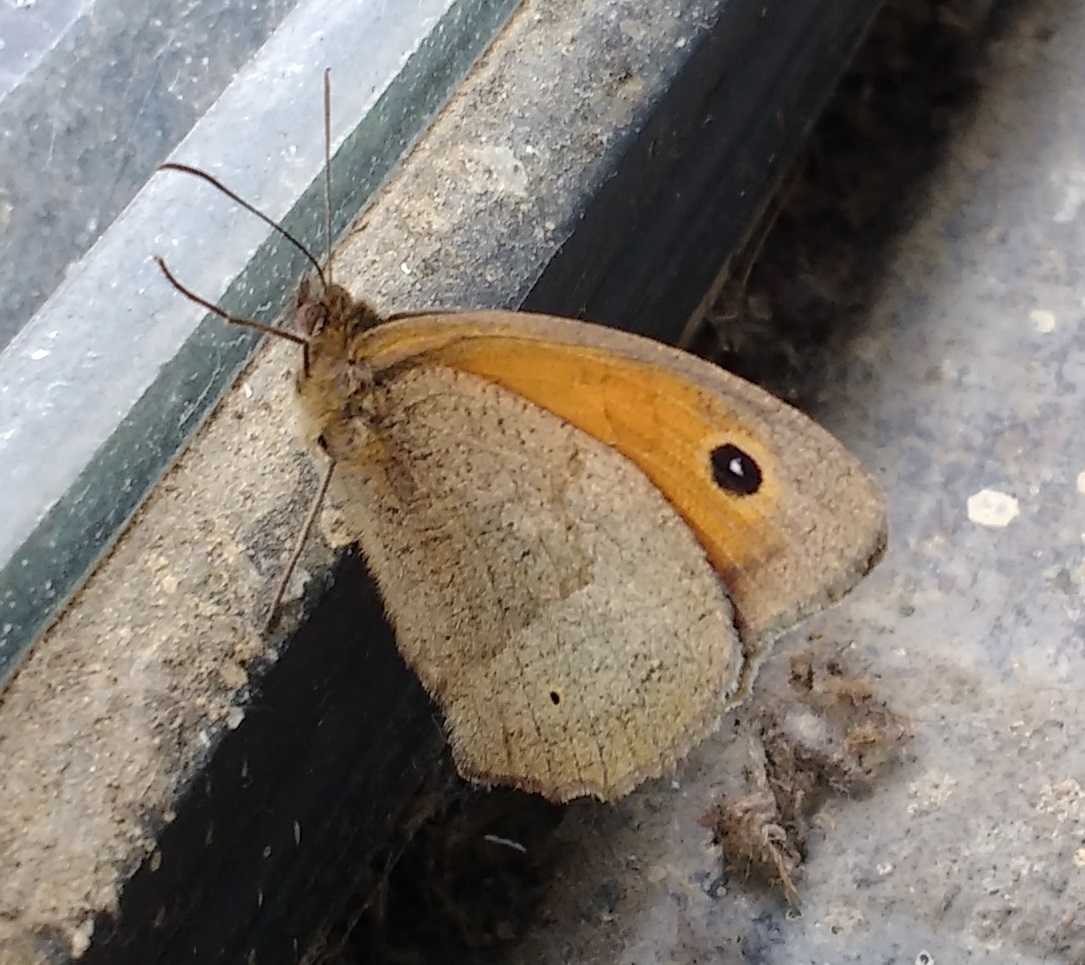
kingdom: Animalia
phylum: Arthropoda
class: Insecta
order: Lepidoptera
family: Nymphalidae
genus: Maniola
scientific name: Maniola jurtina
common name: Meadow brown
